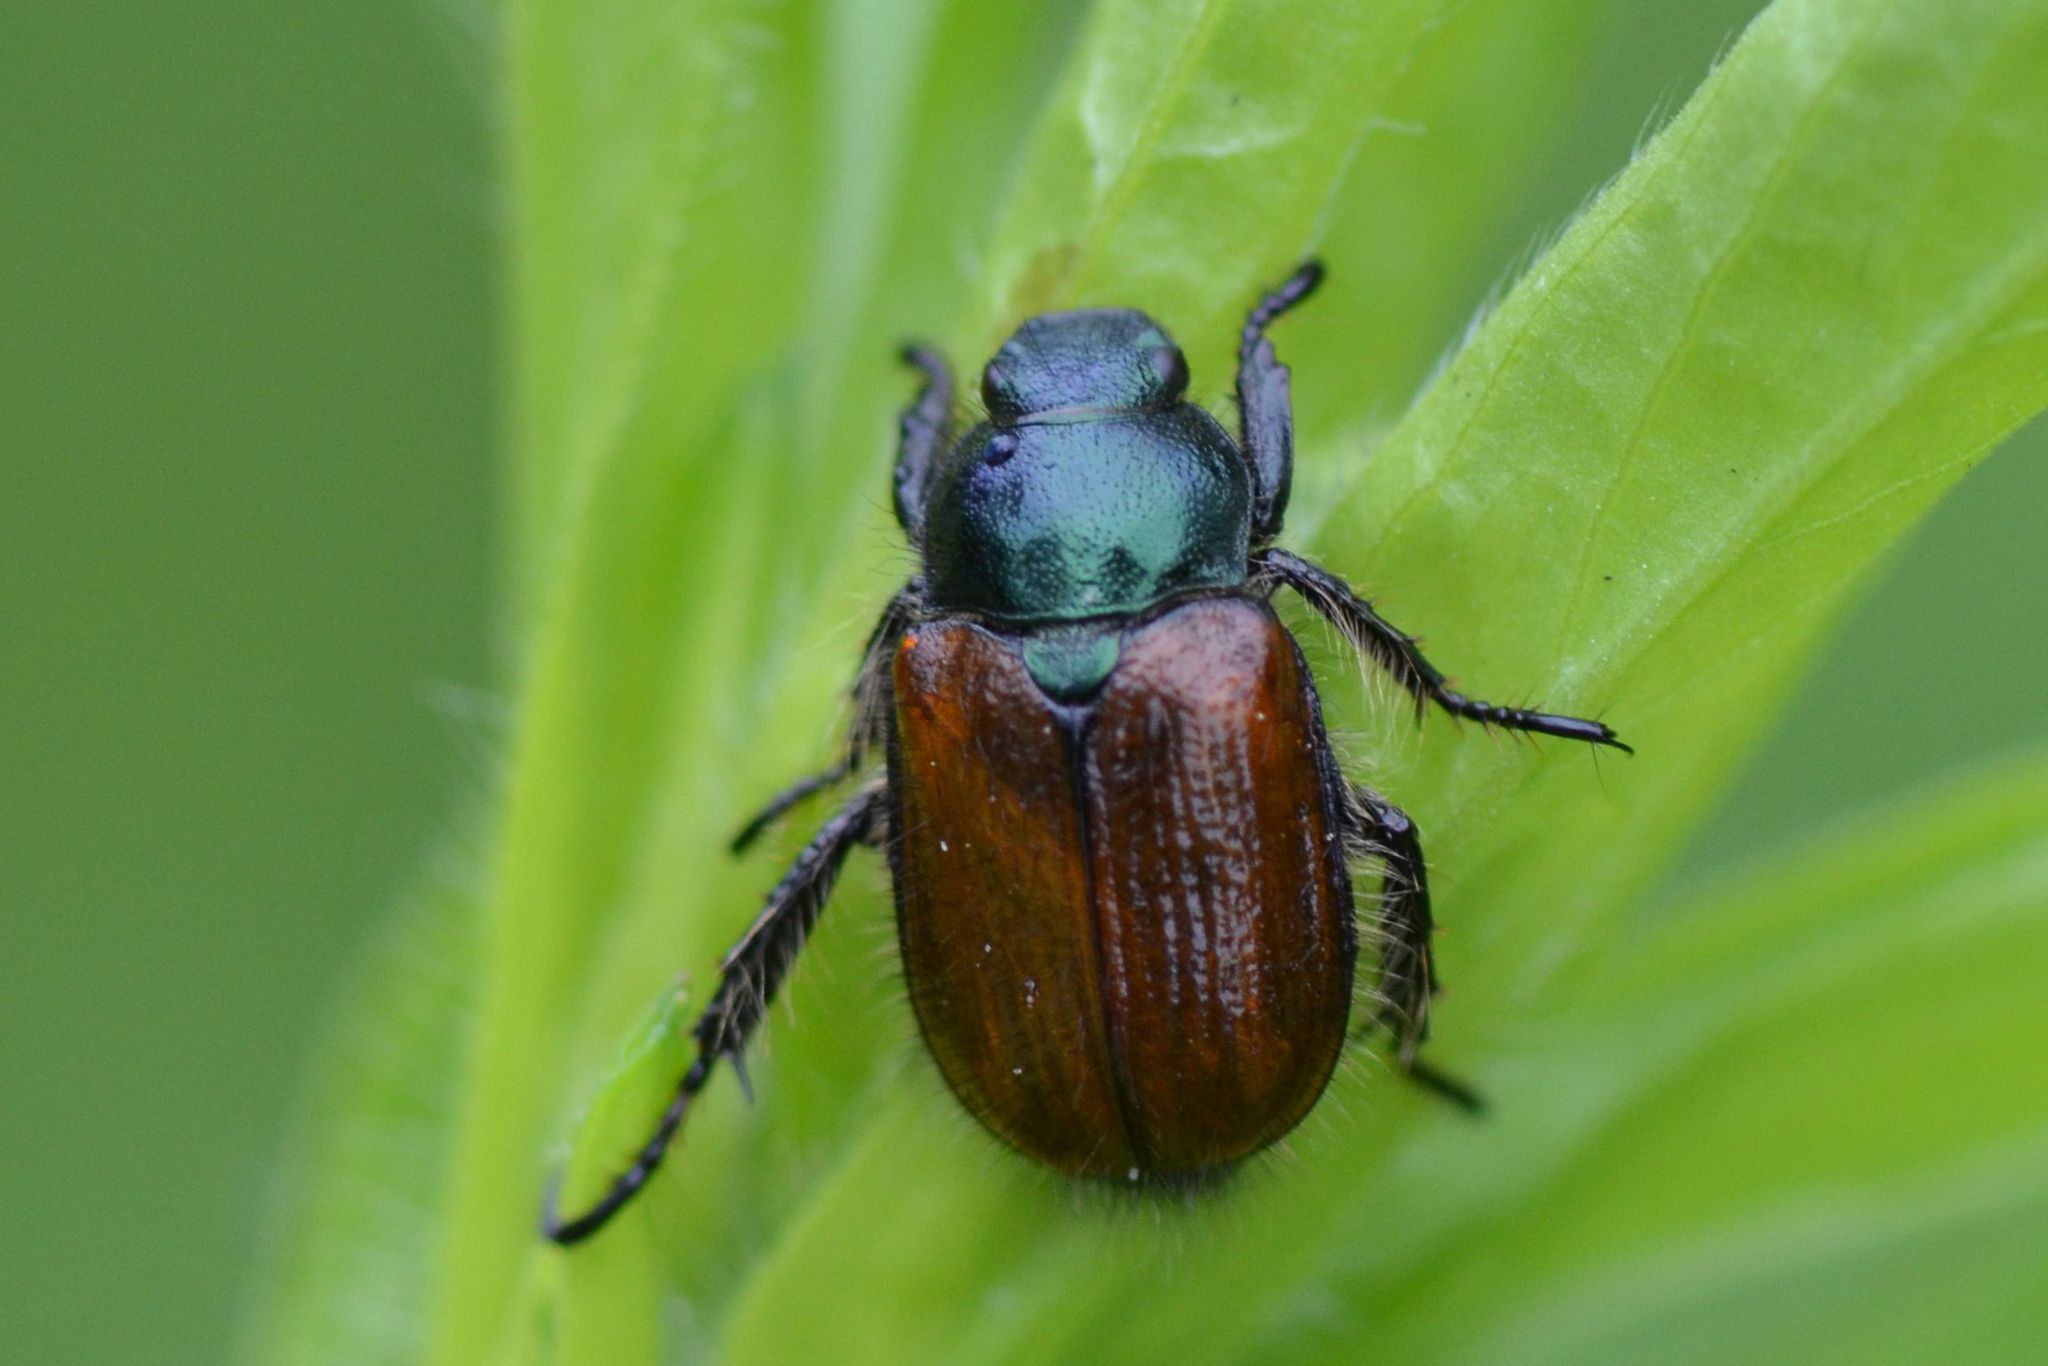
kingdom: Animalia
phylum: Arthropoda
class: Insecta
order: Coleoptera
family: Scarabaeidae
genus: Phyllopertha
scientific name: Phyllopertha horticola
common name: Garden chafer
